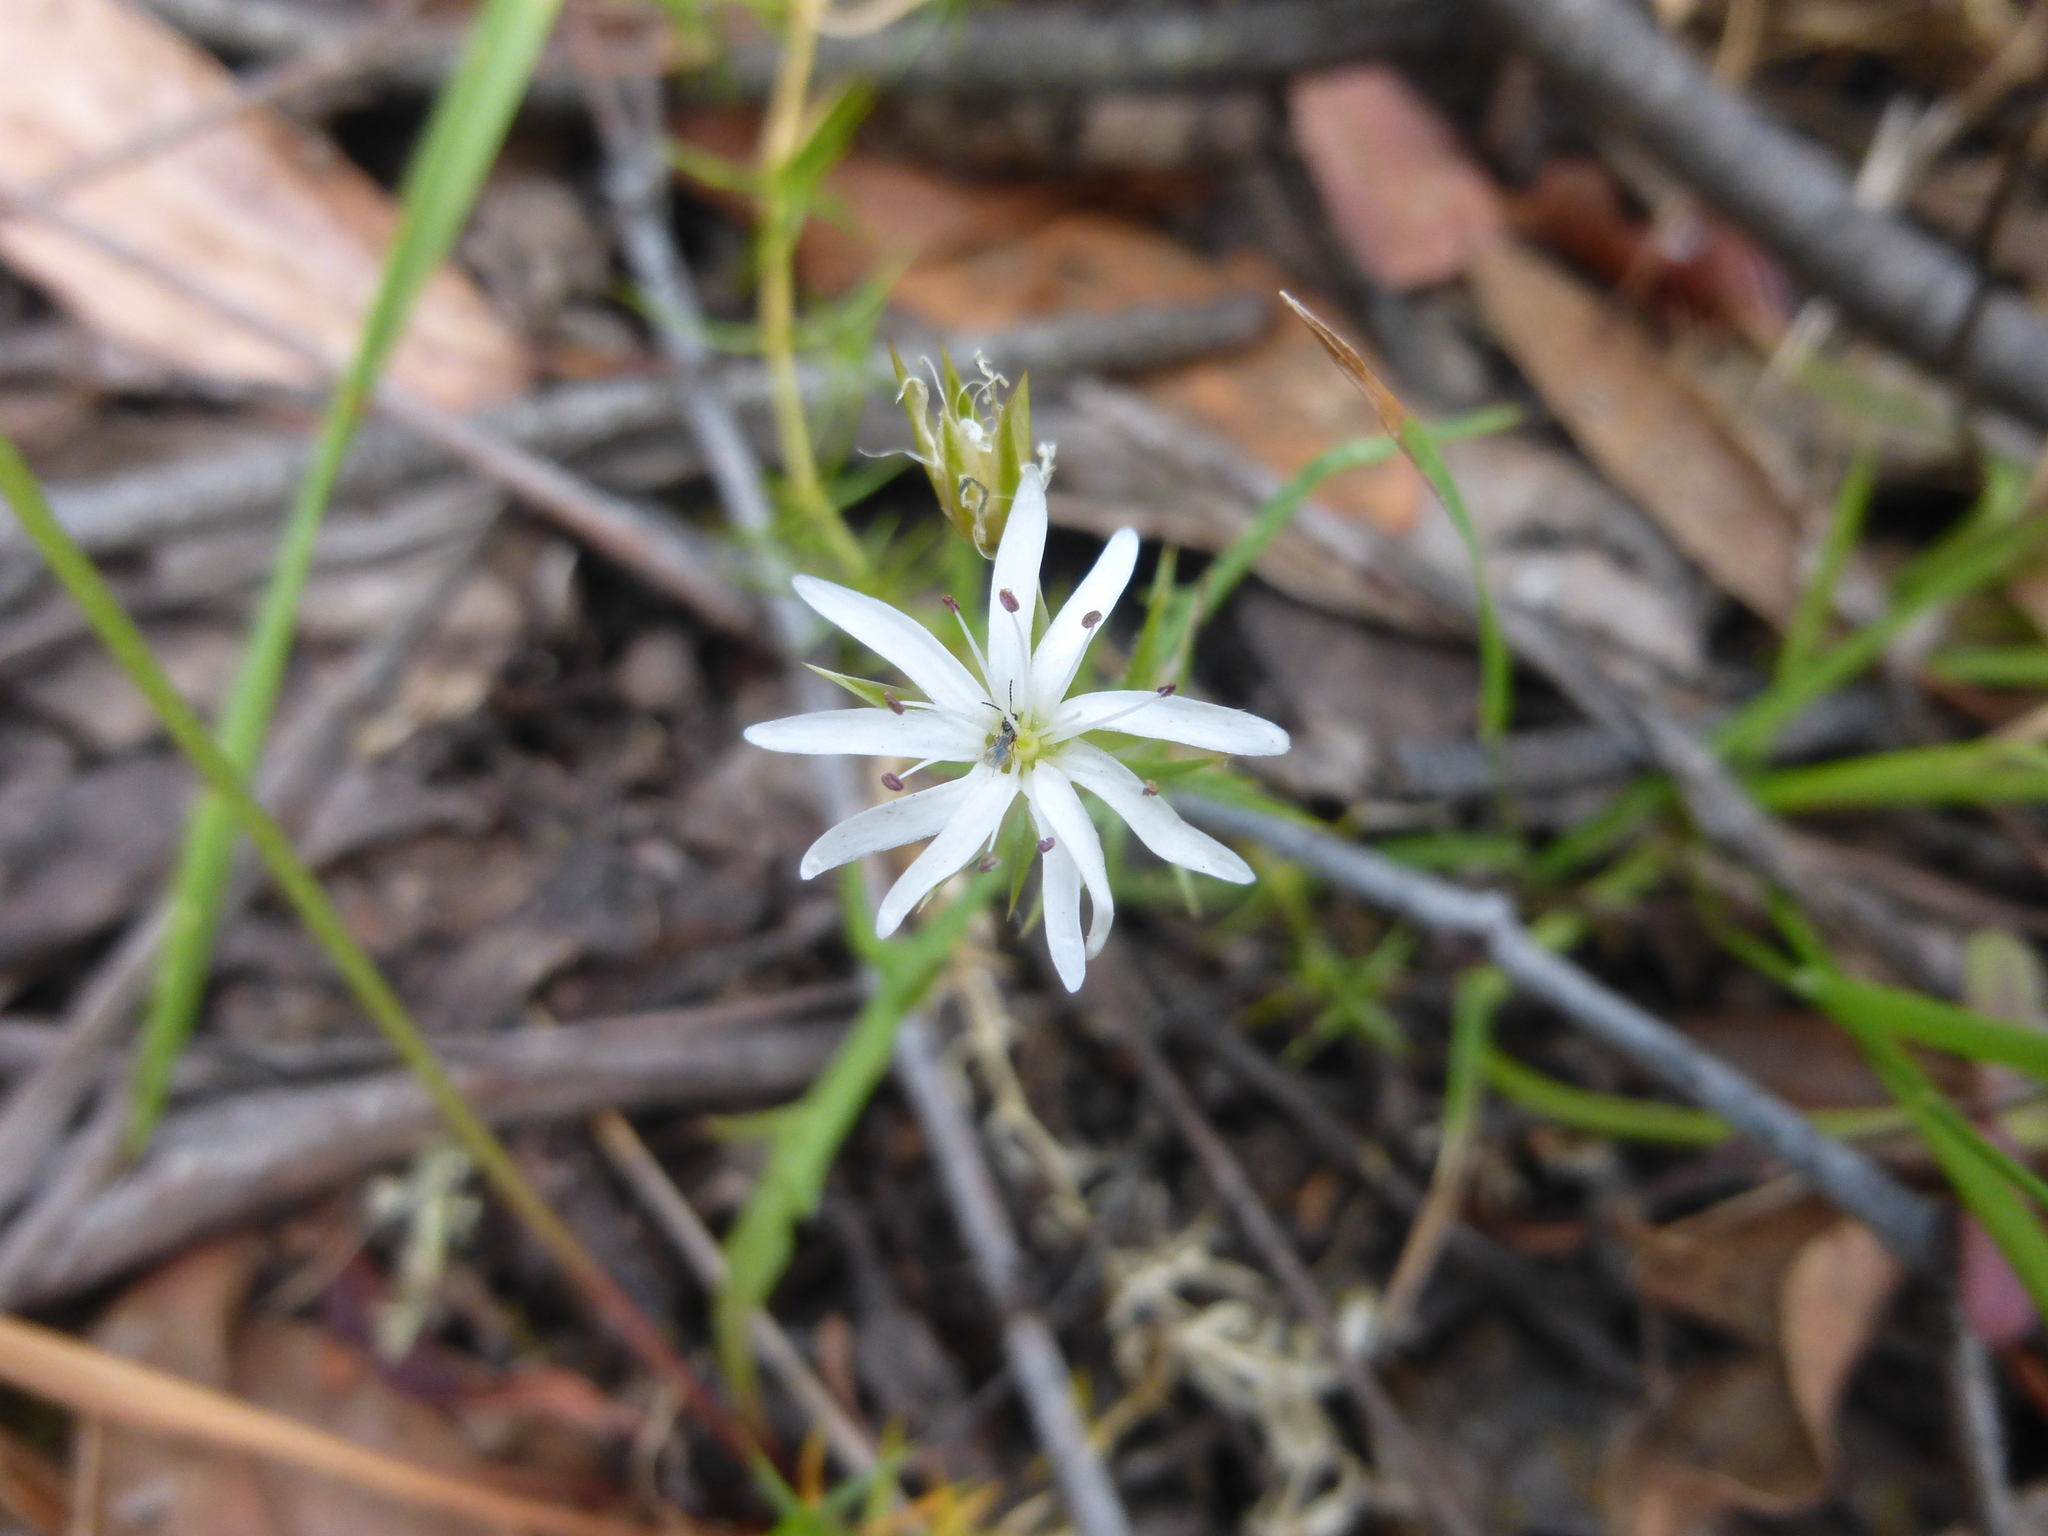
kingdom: Plantae
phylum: Tracheophyta
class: Magnoliopsida
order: Caryophyllales
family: Caryophyllaceae
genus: Stellaria
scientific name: Stellaria pungens
